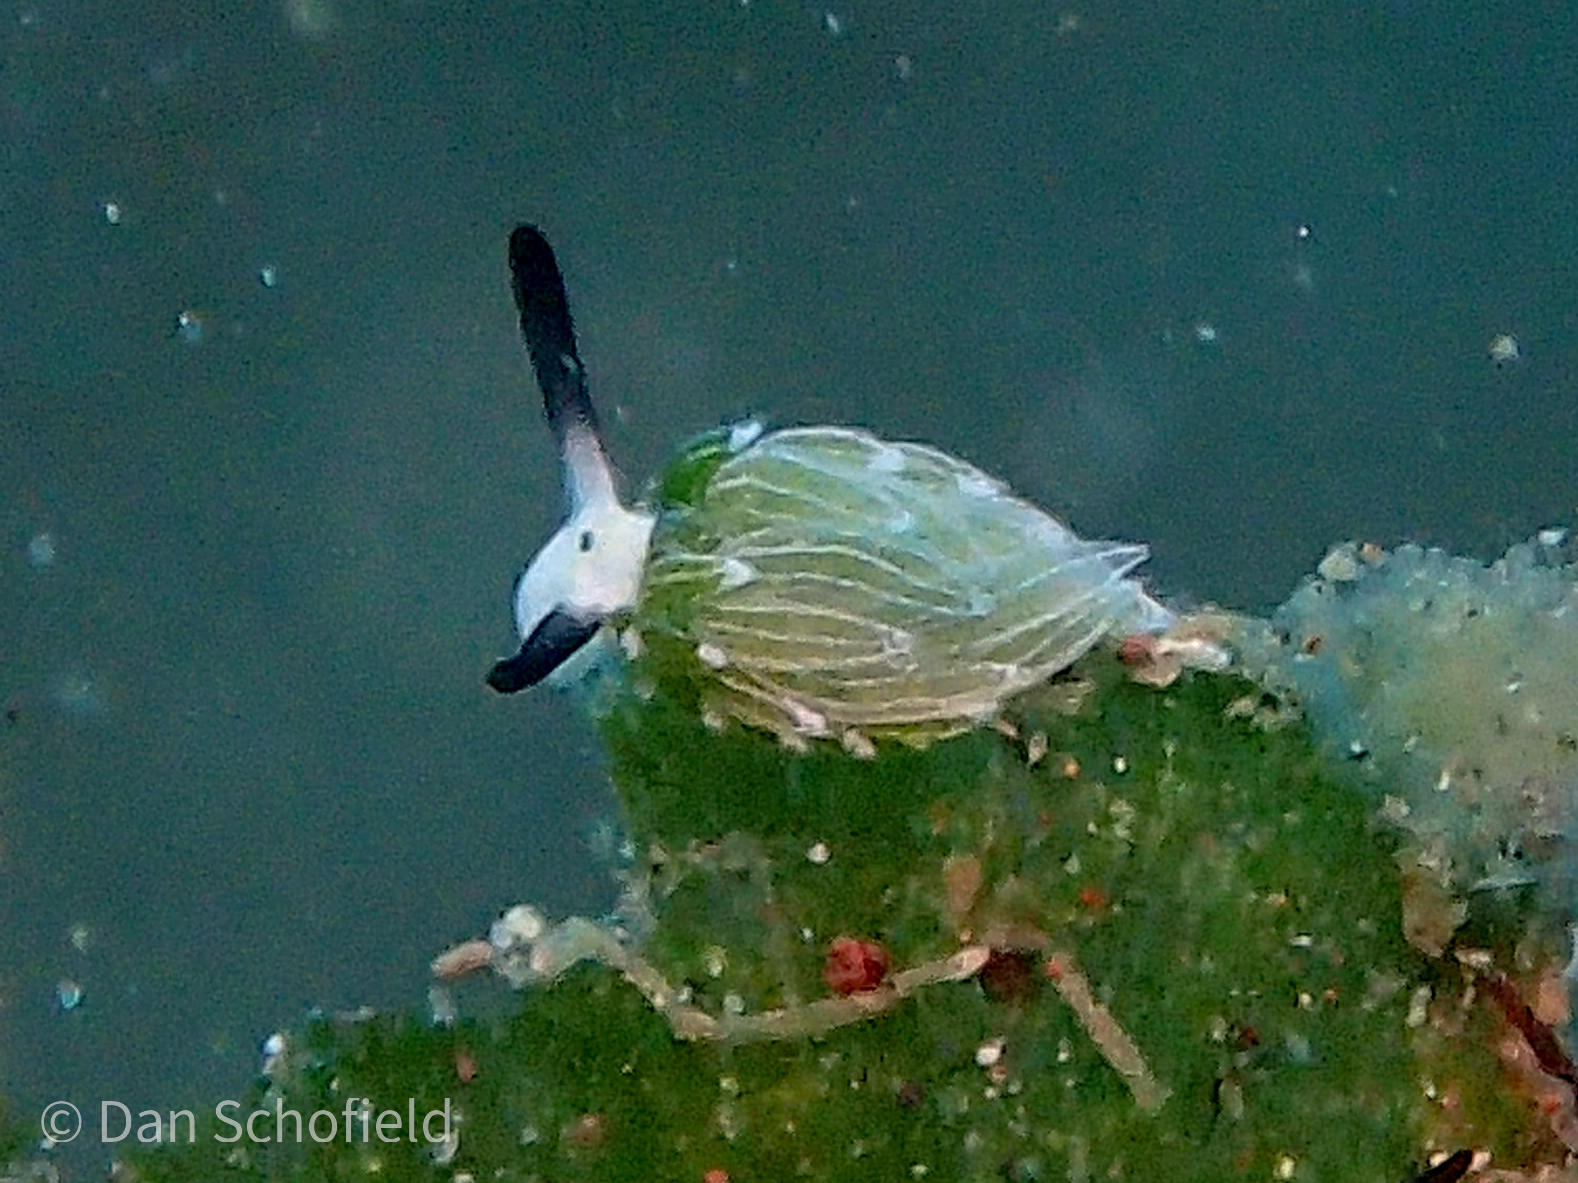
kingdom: Animalia
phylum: Mollusca
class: Gastropoda
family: Costasiellidae
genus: Costasiella
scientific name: Costasiella usagi
